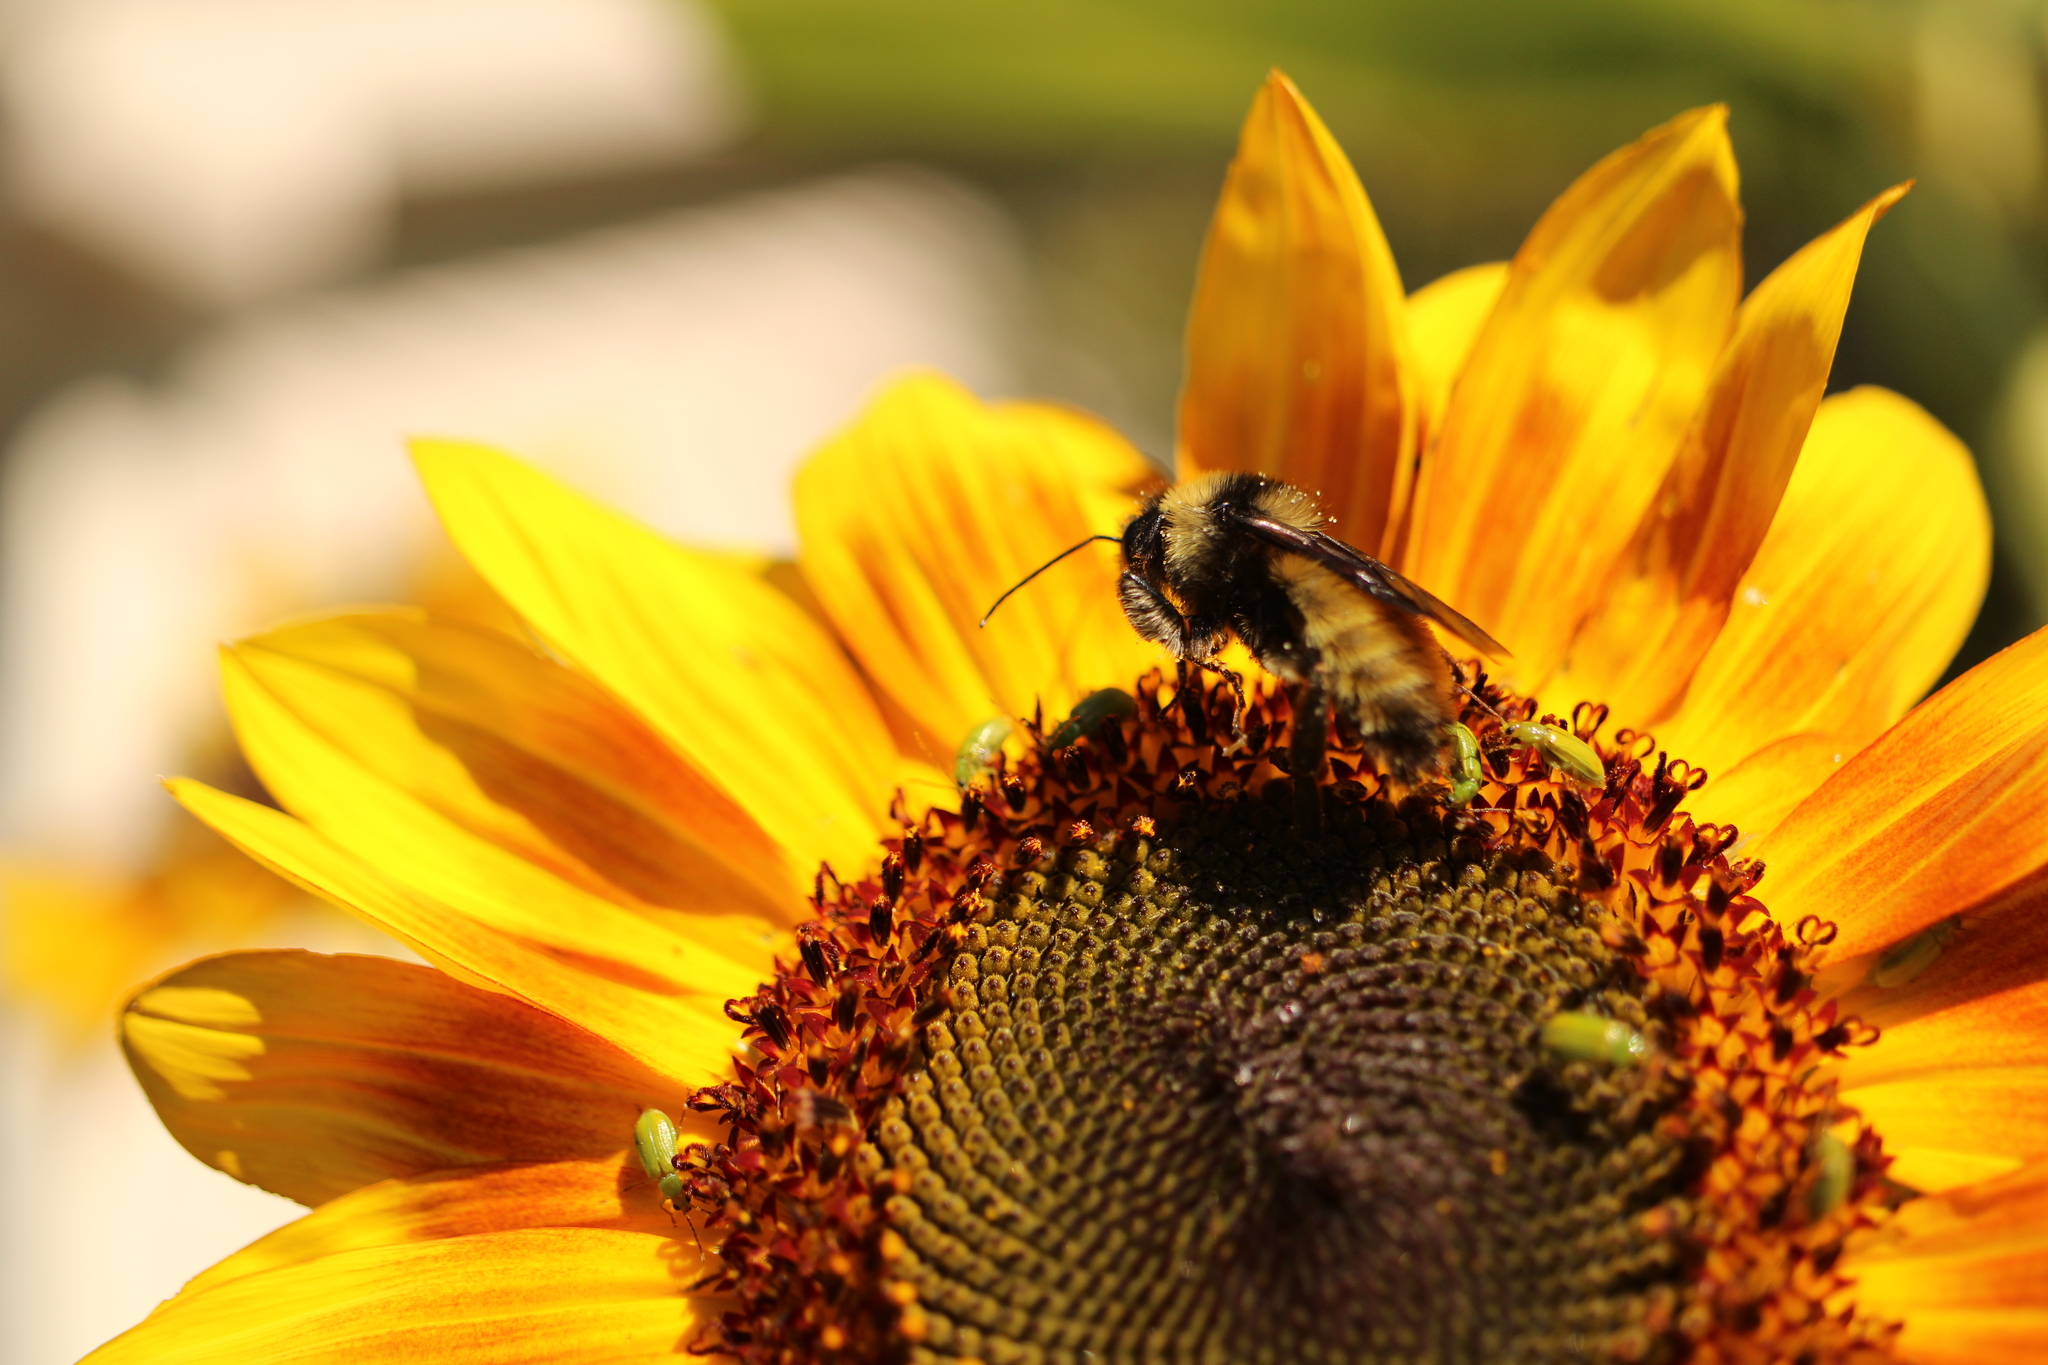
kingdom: Animalia
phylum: Arthropoda
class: Insecta
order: Hymenoptera
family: Apidae
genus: Bombus
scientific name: Bombus pensylvanicus
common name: Bumble bee
